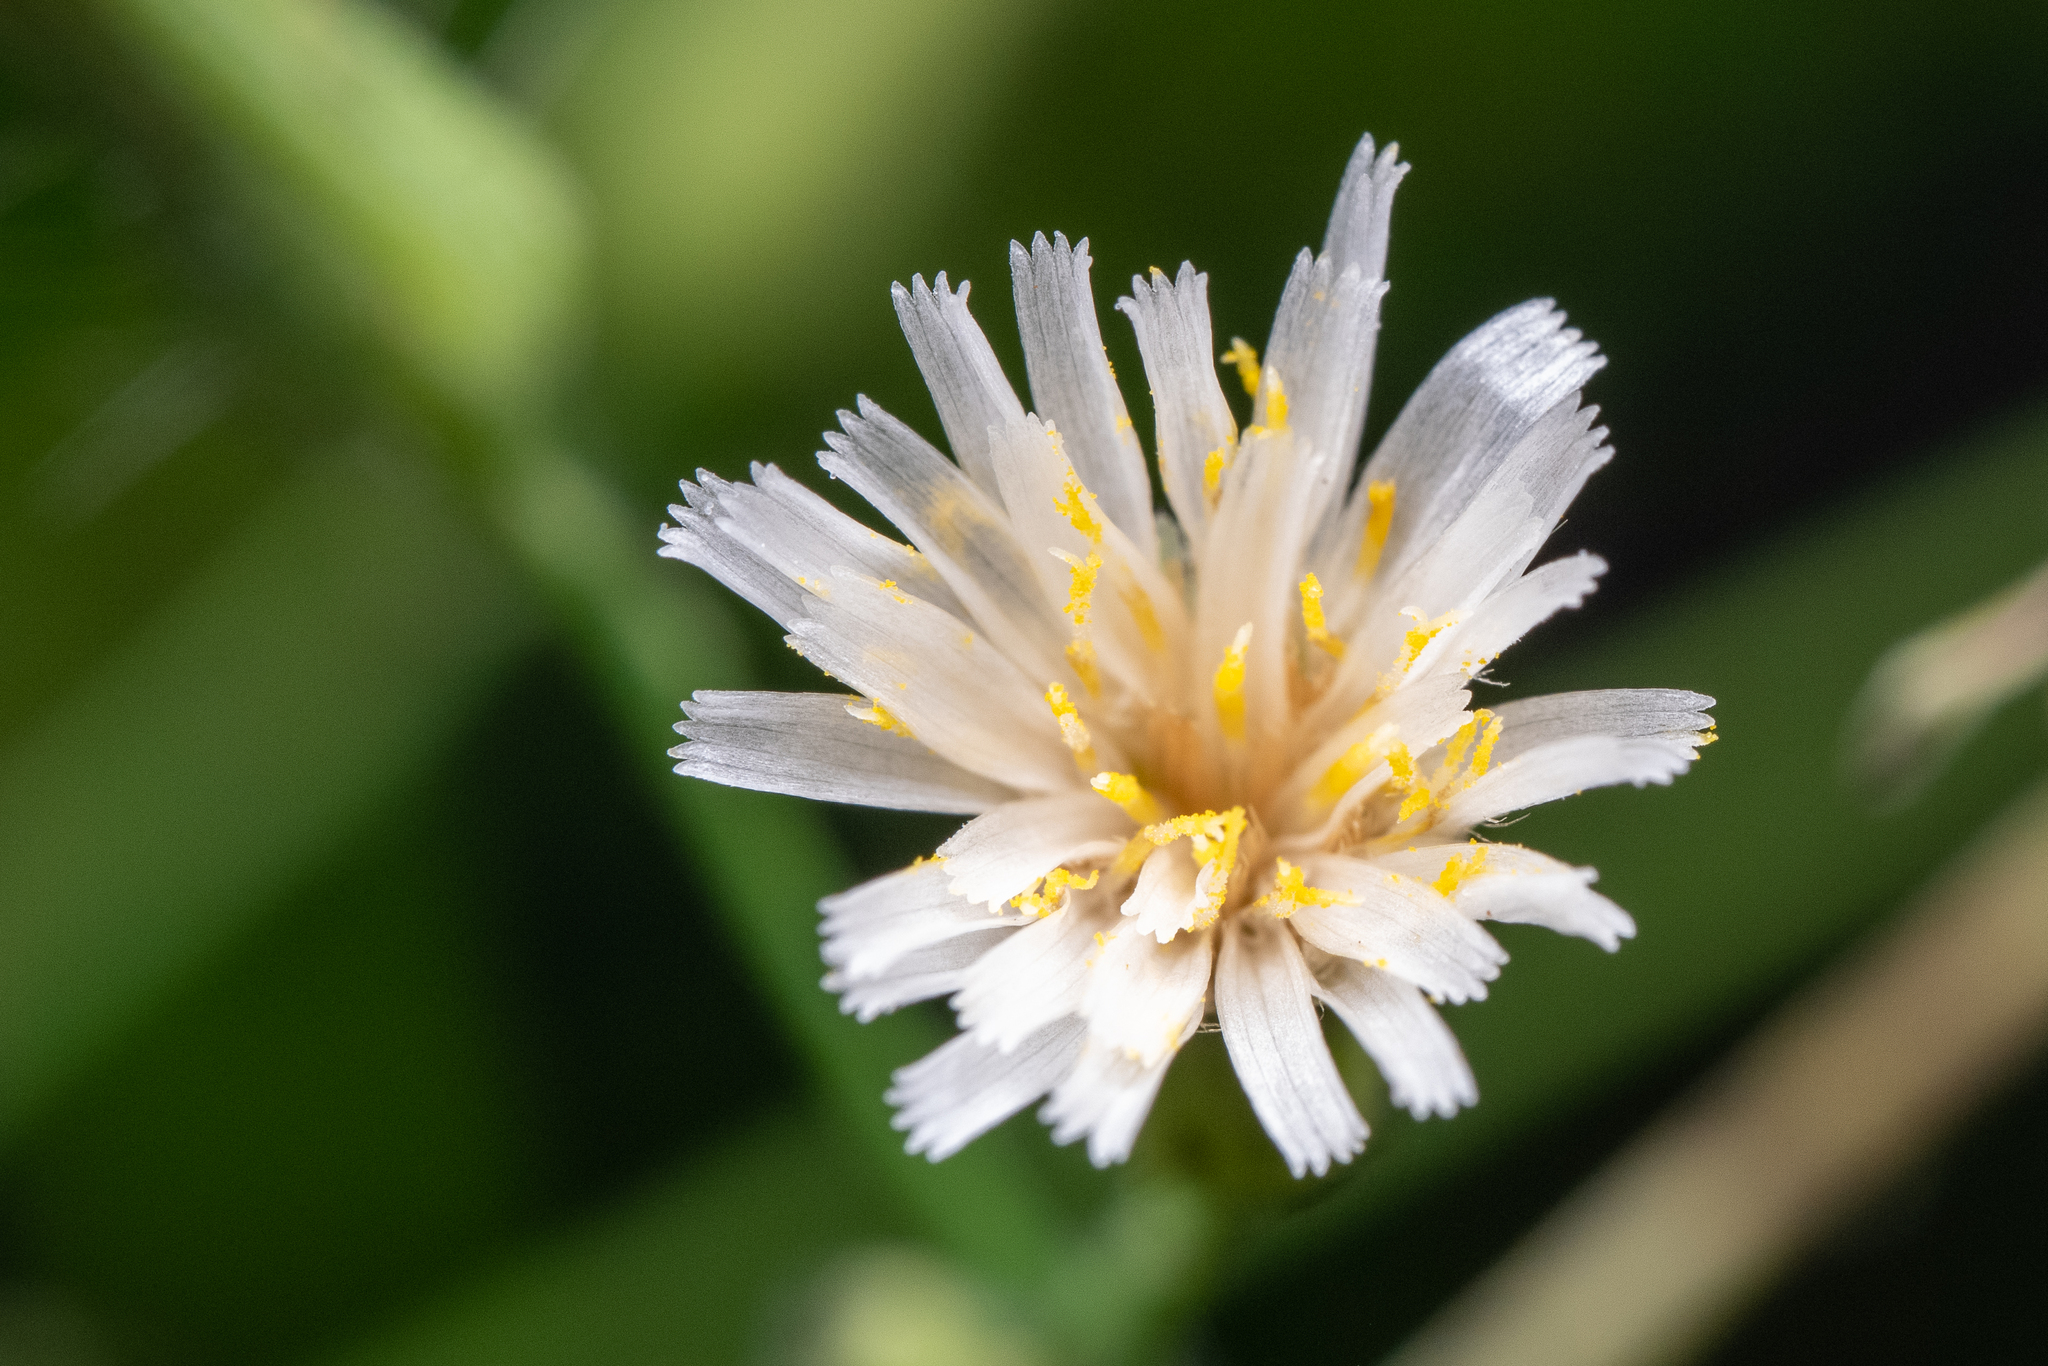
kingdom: Plantae
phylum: Tracheophyta
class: Magnoliopsida
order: Asterales
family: Asteraceae
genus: Hieracium
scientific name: Hieracium albiflorum
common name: White hawkweed
